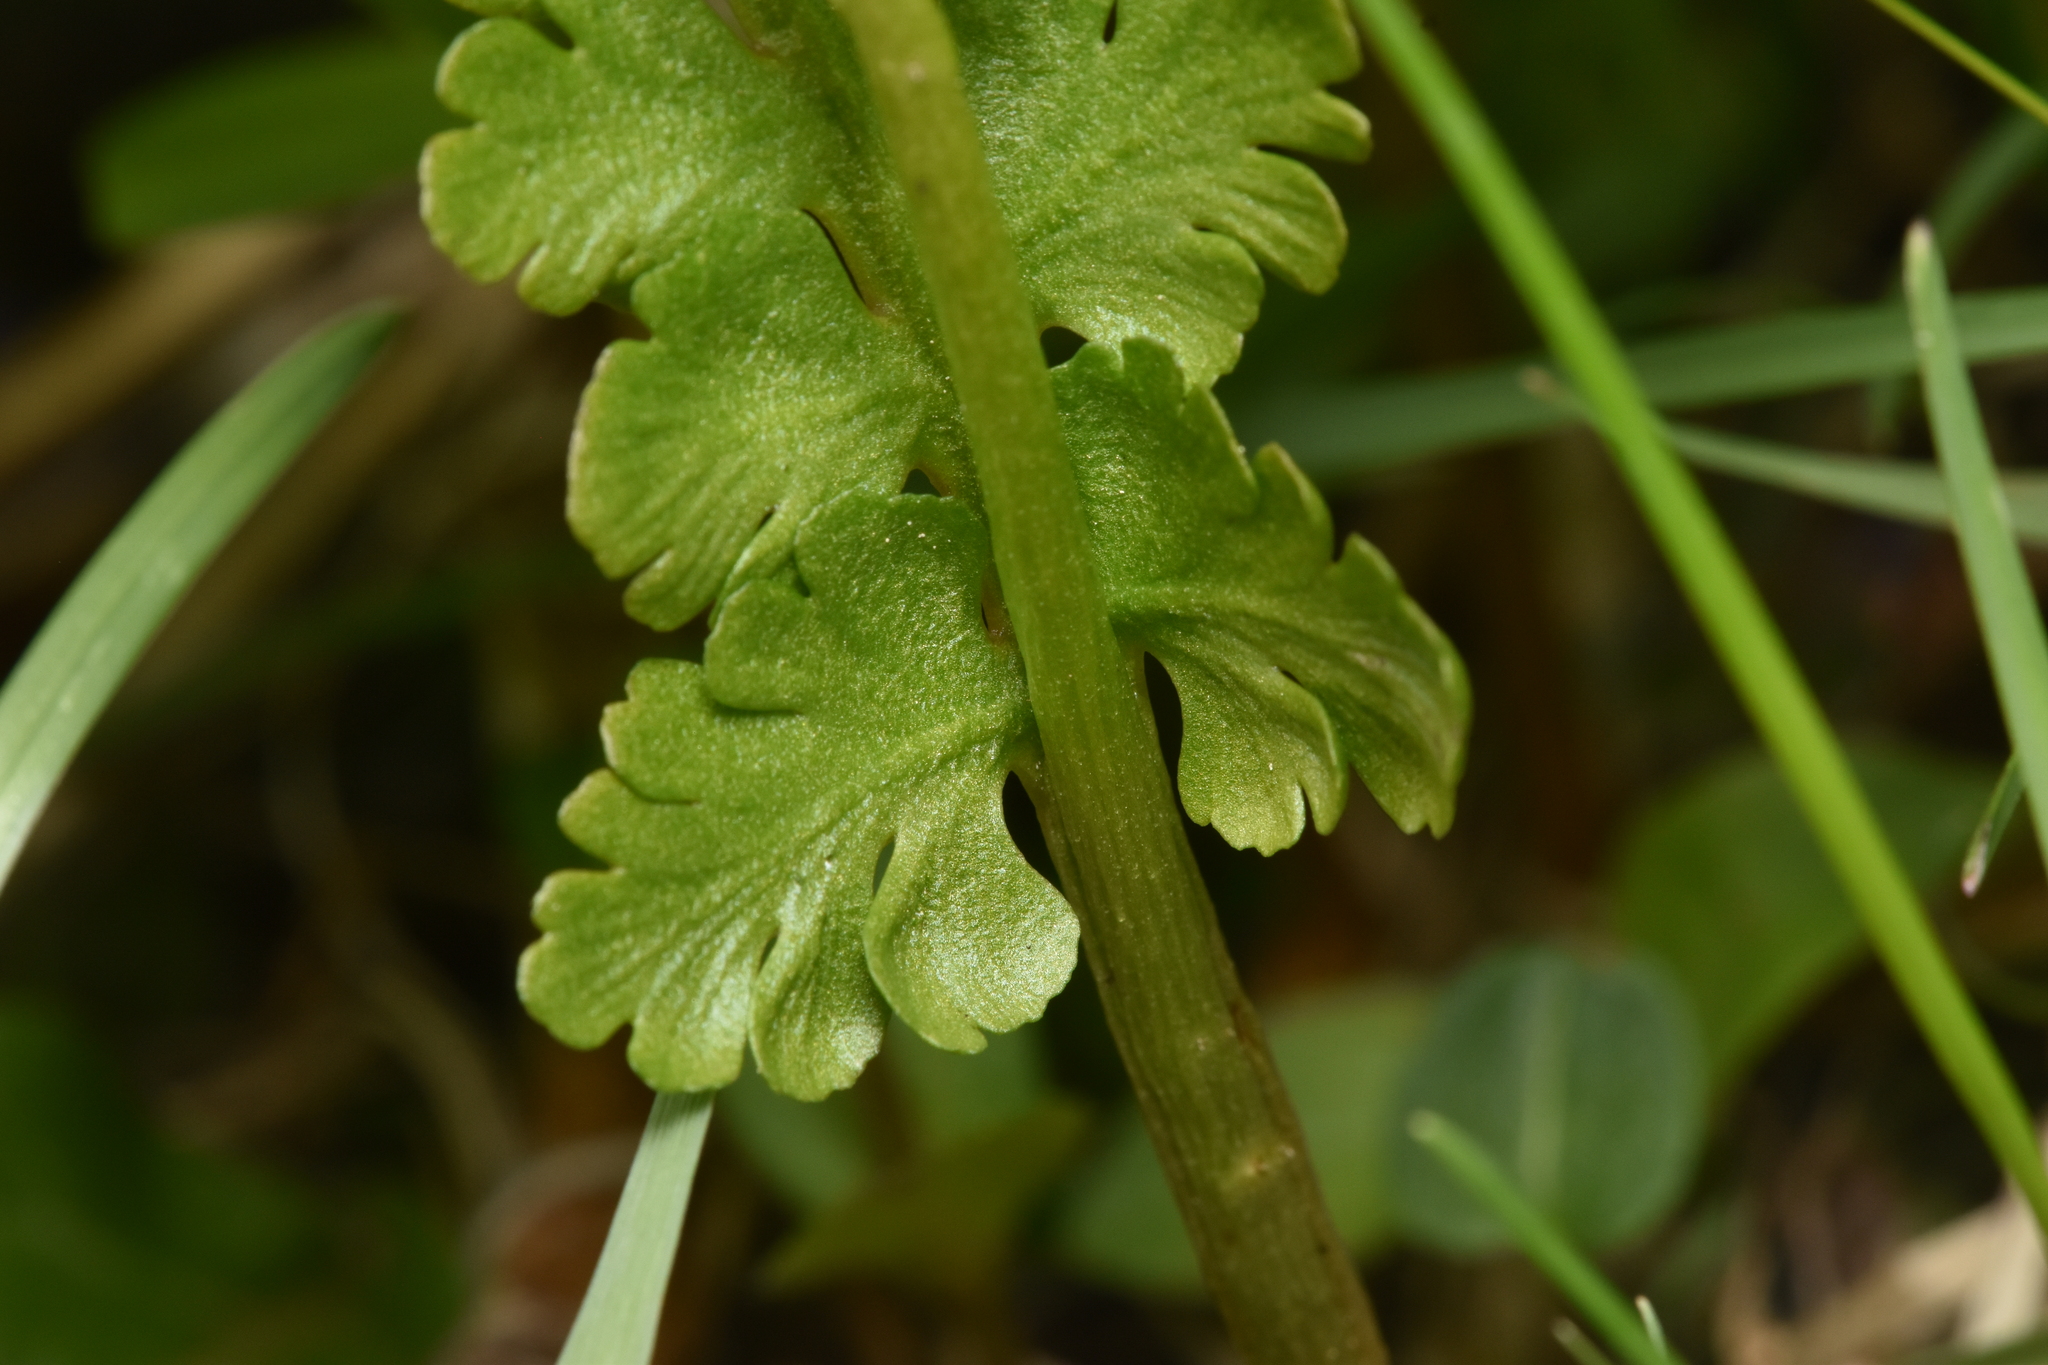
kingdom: Plantae
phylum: Tracheophyta
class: Polypodiopsida
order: Ophioglossales
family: Ophioglossaceae
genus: Botrychium
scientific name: Botrychium pinnatum
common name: Northwestern moonwort
